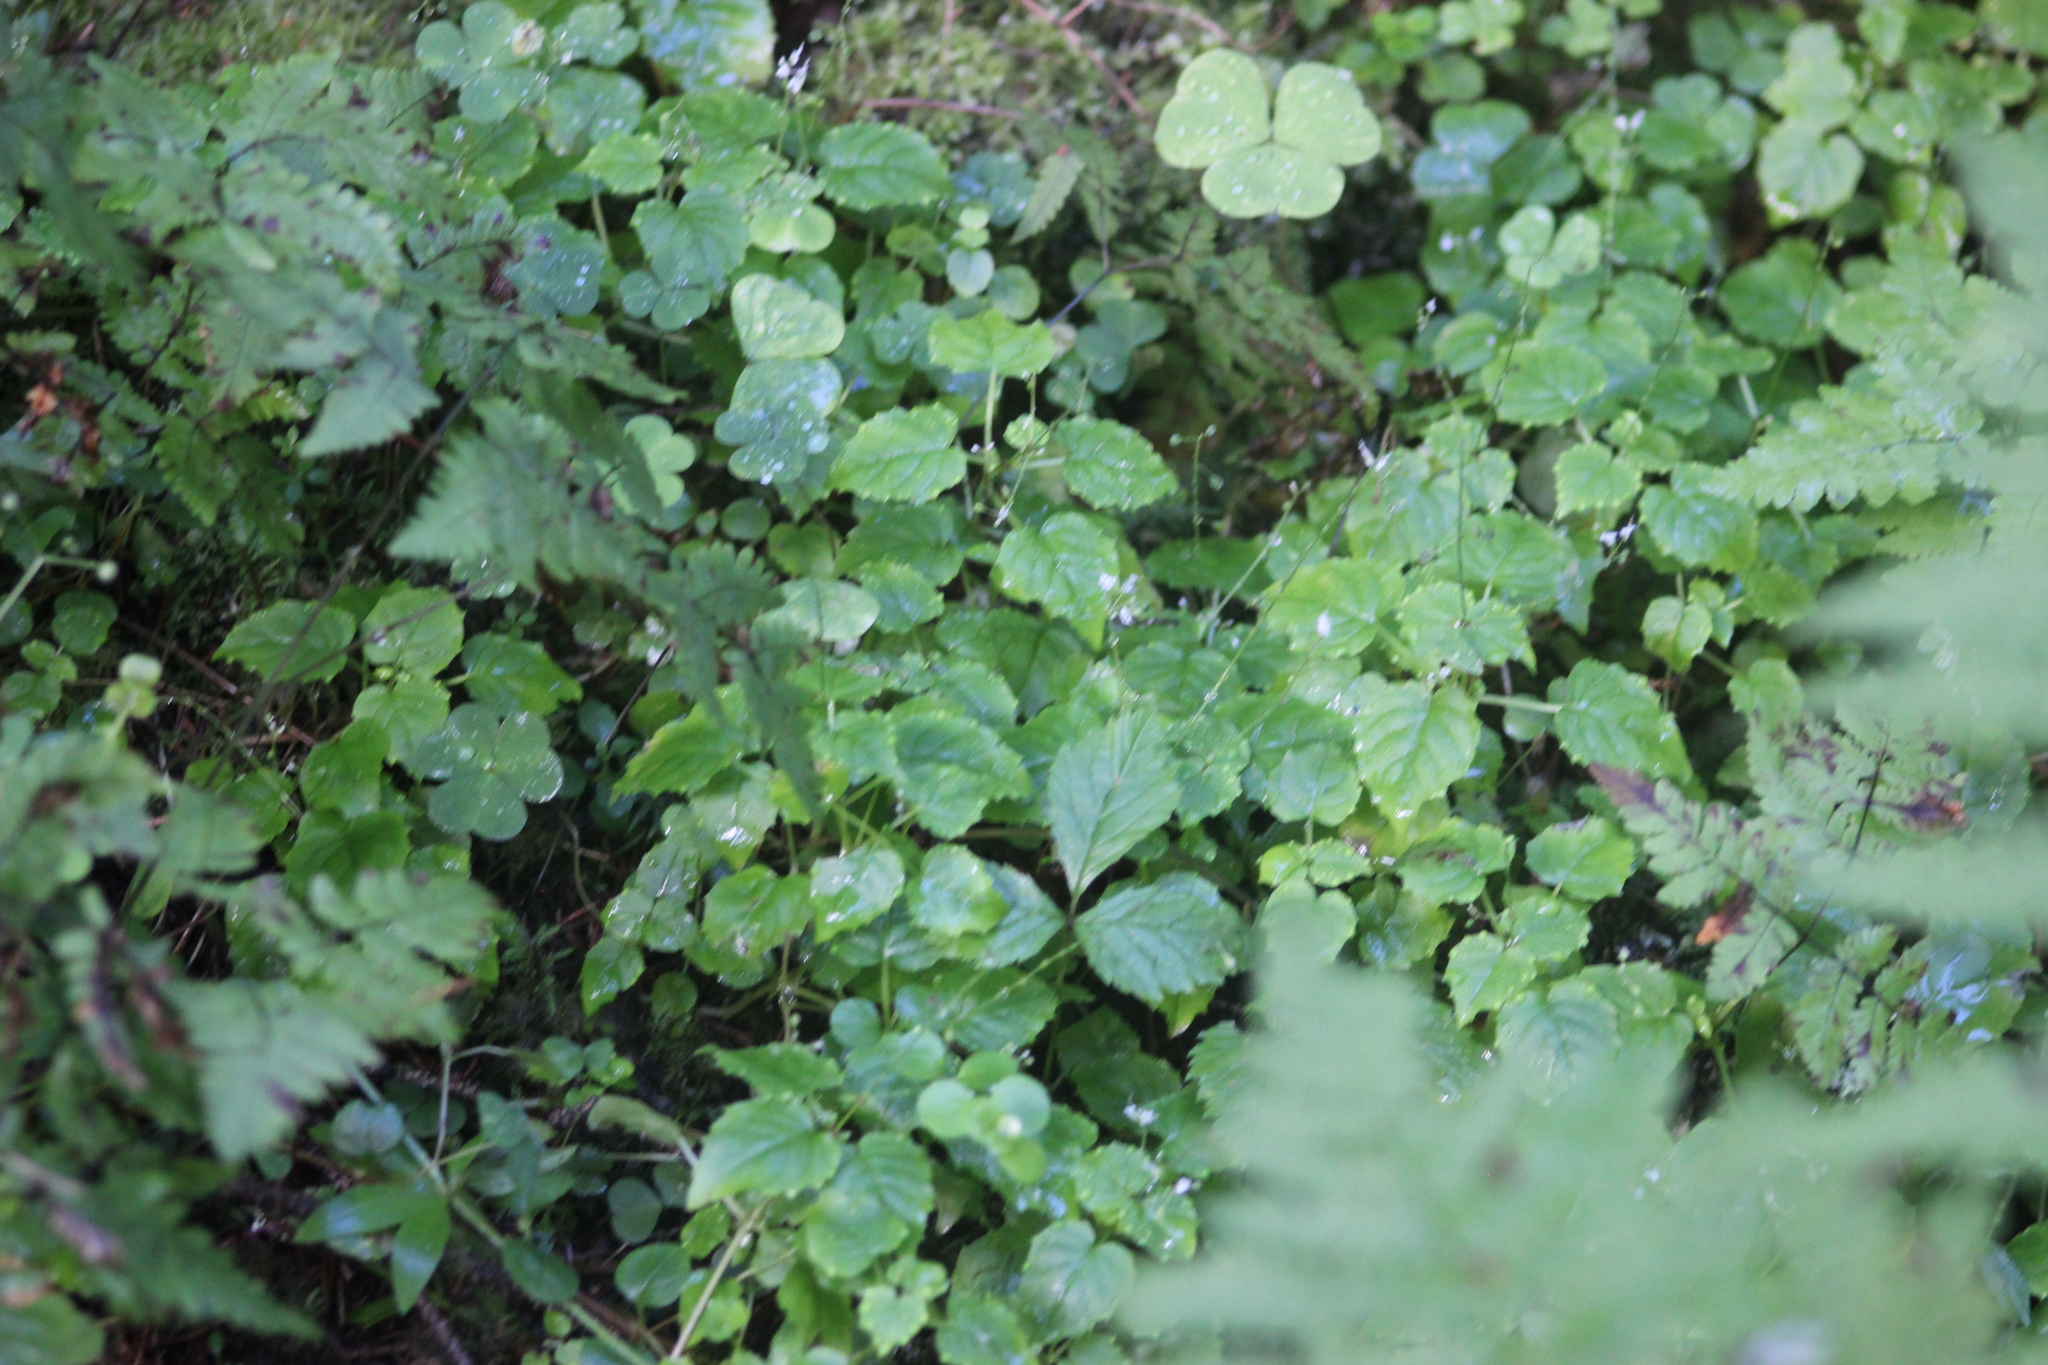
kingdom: Plantae
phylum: Tracheophyta
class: Magnoliopsida
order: Myrtales
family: Onagraceae
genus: Circaea
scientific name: Circaea alpina
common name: Alpine enchanter's-nightshade
